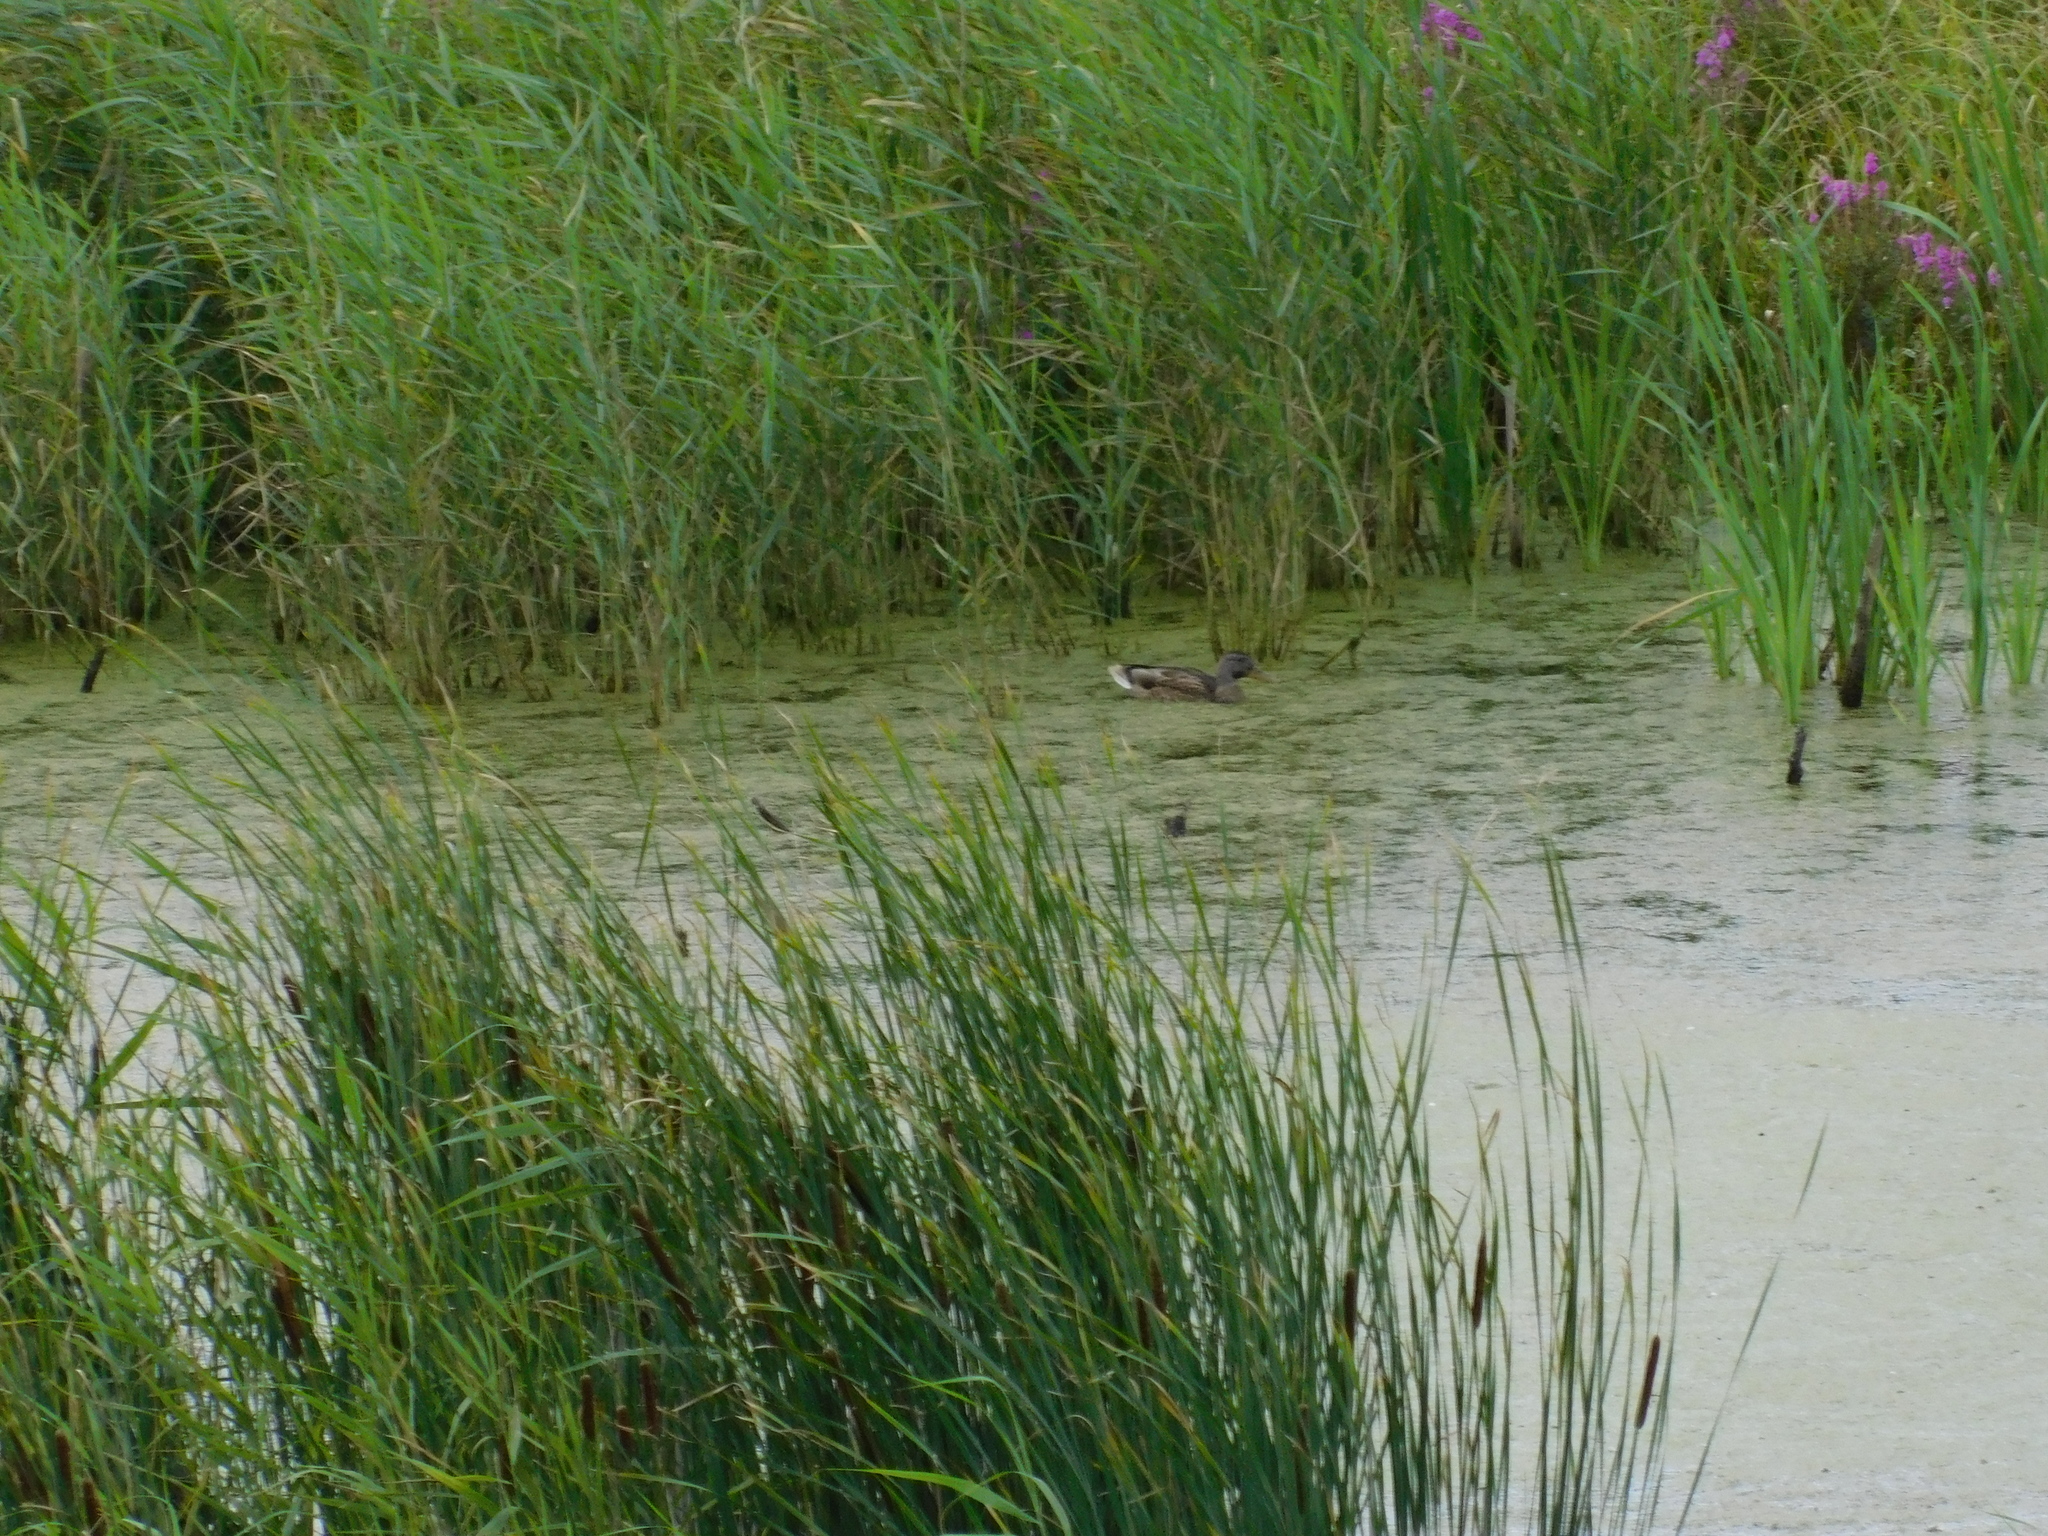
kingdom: Animalia
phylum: Chordata
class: Aves
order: Anseriformes
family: Anatidae
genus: Anas
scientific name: Anas platyrhynchos
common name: Mallard
